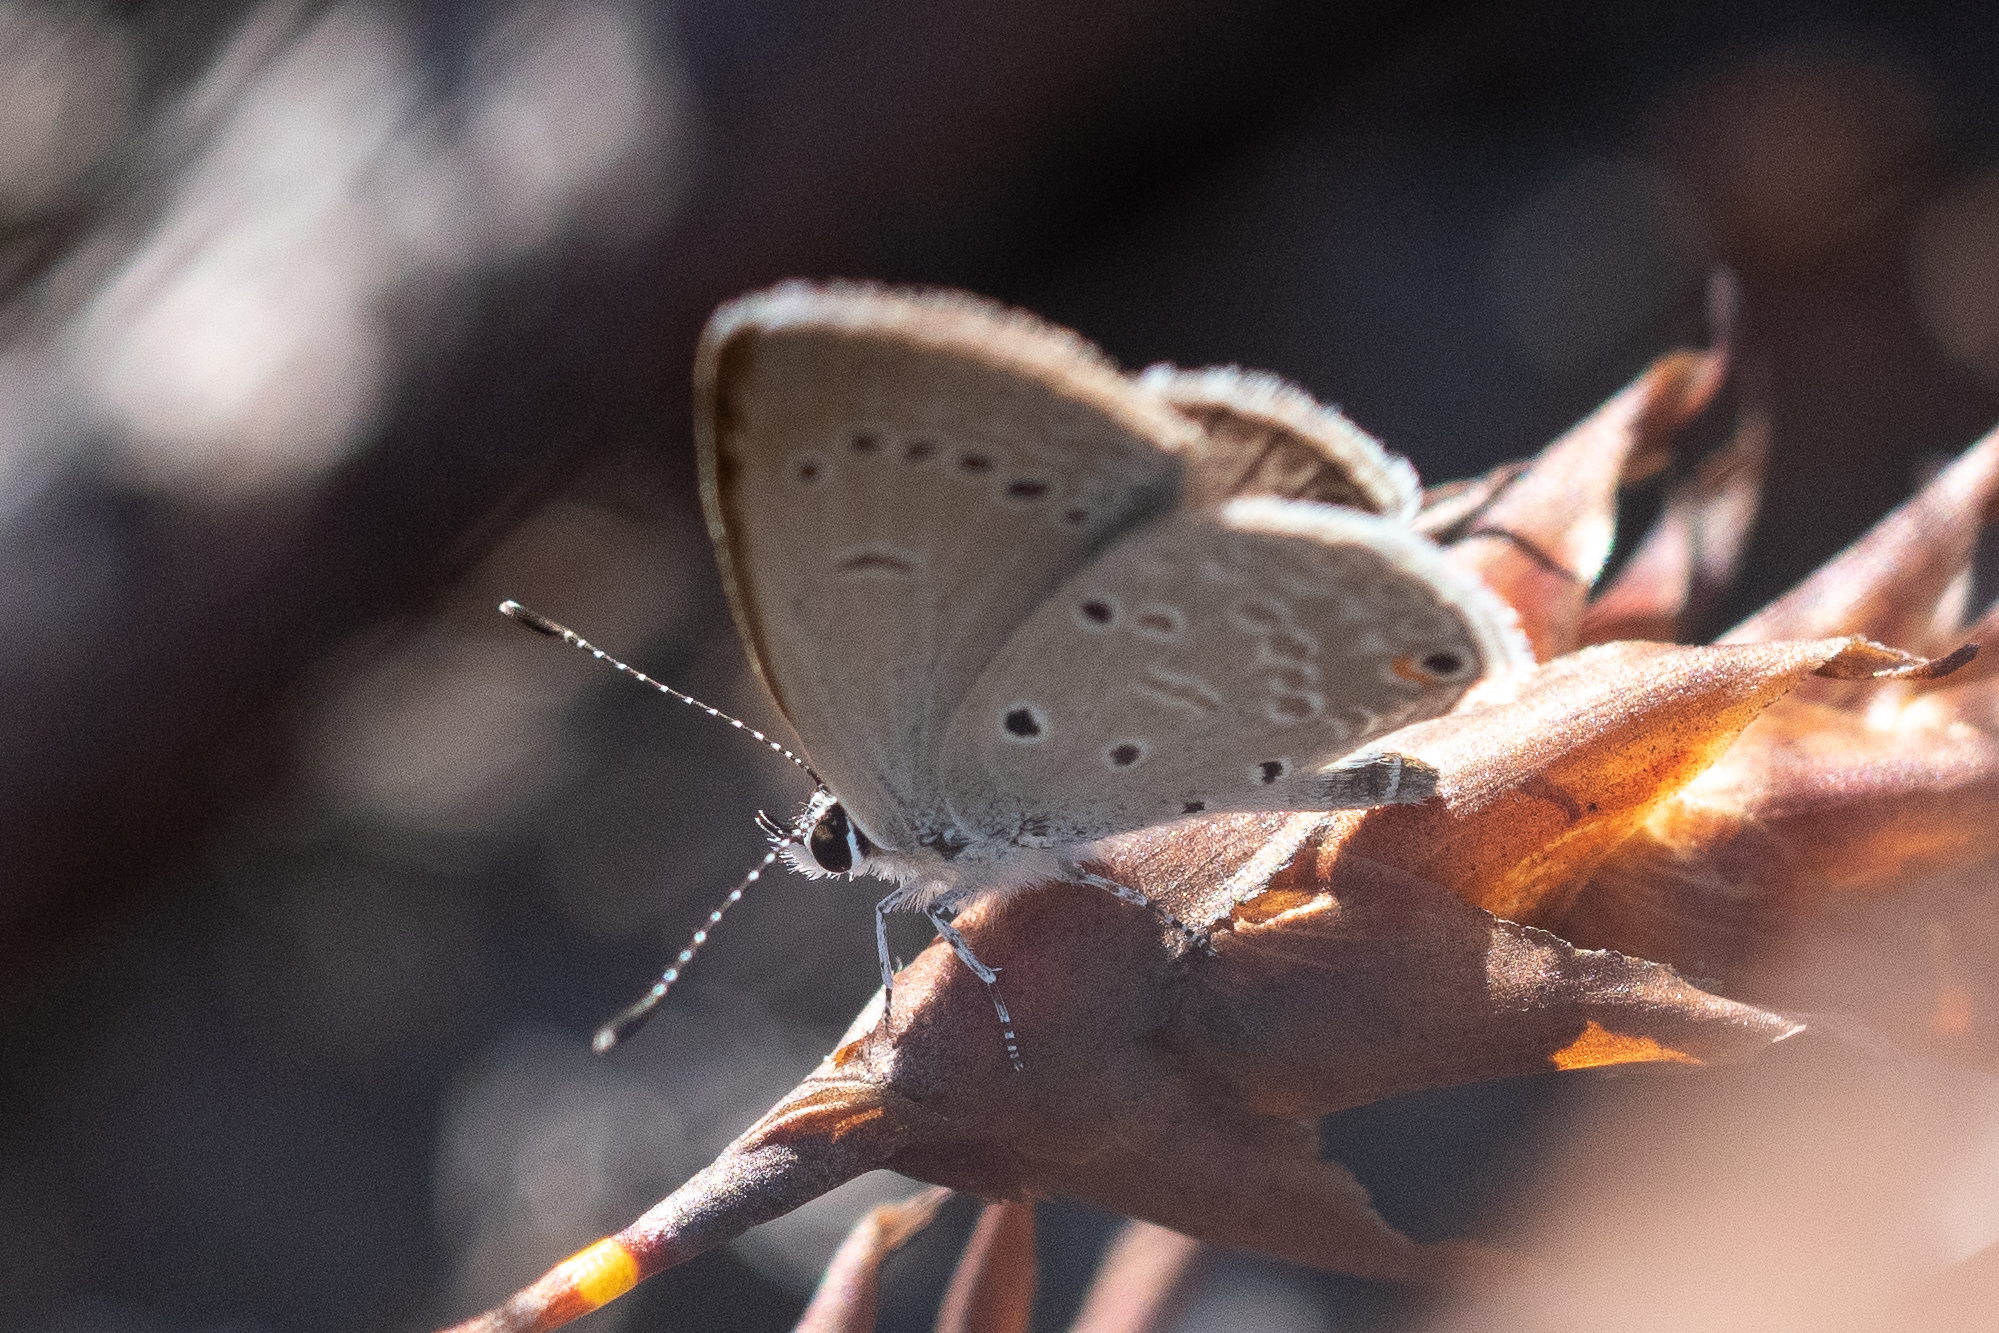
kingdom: Animalia
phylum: Arthropoda
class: Insecta
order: Lepidoptera
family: Lycaenidae
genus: Eicochrysops
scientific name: Eicochrysops messapus
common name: Cupreous blue
